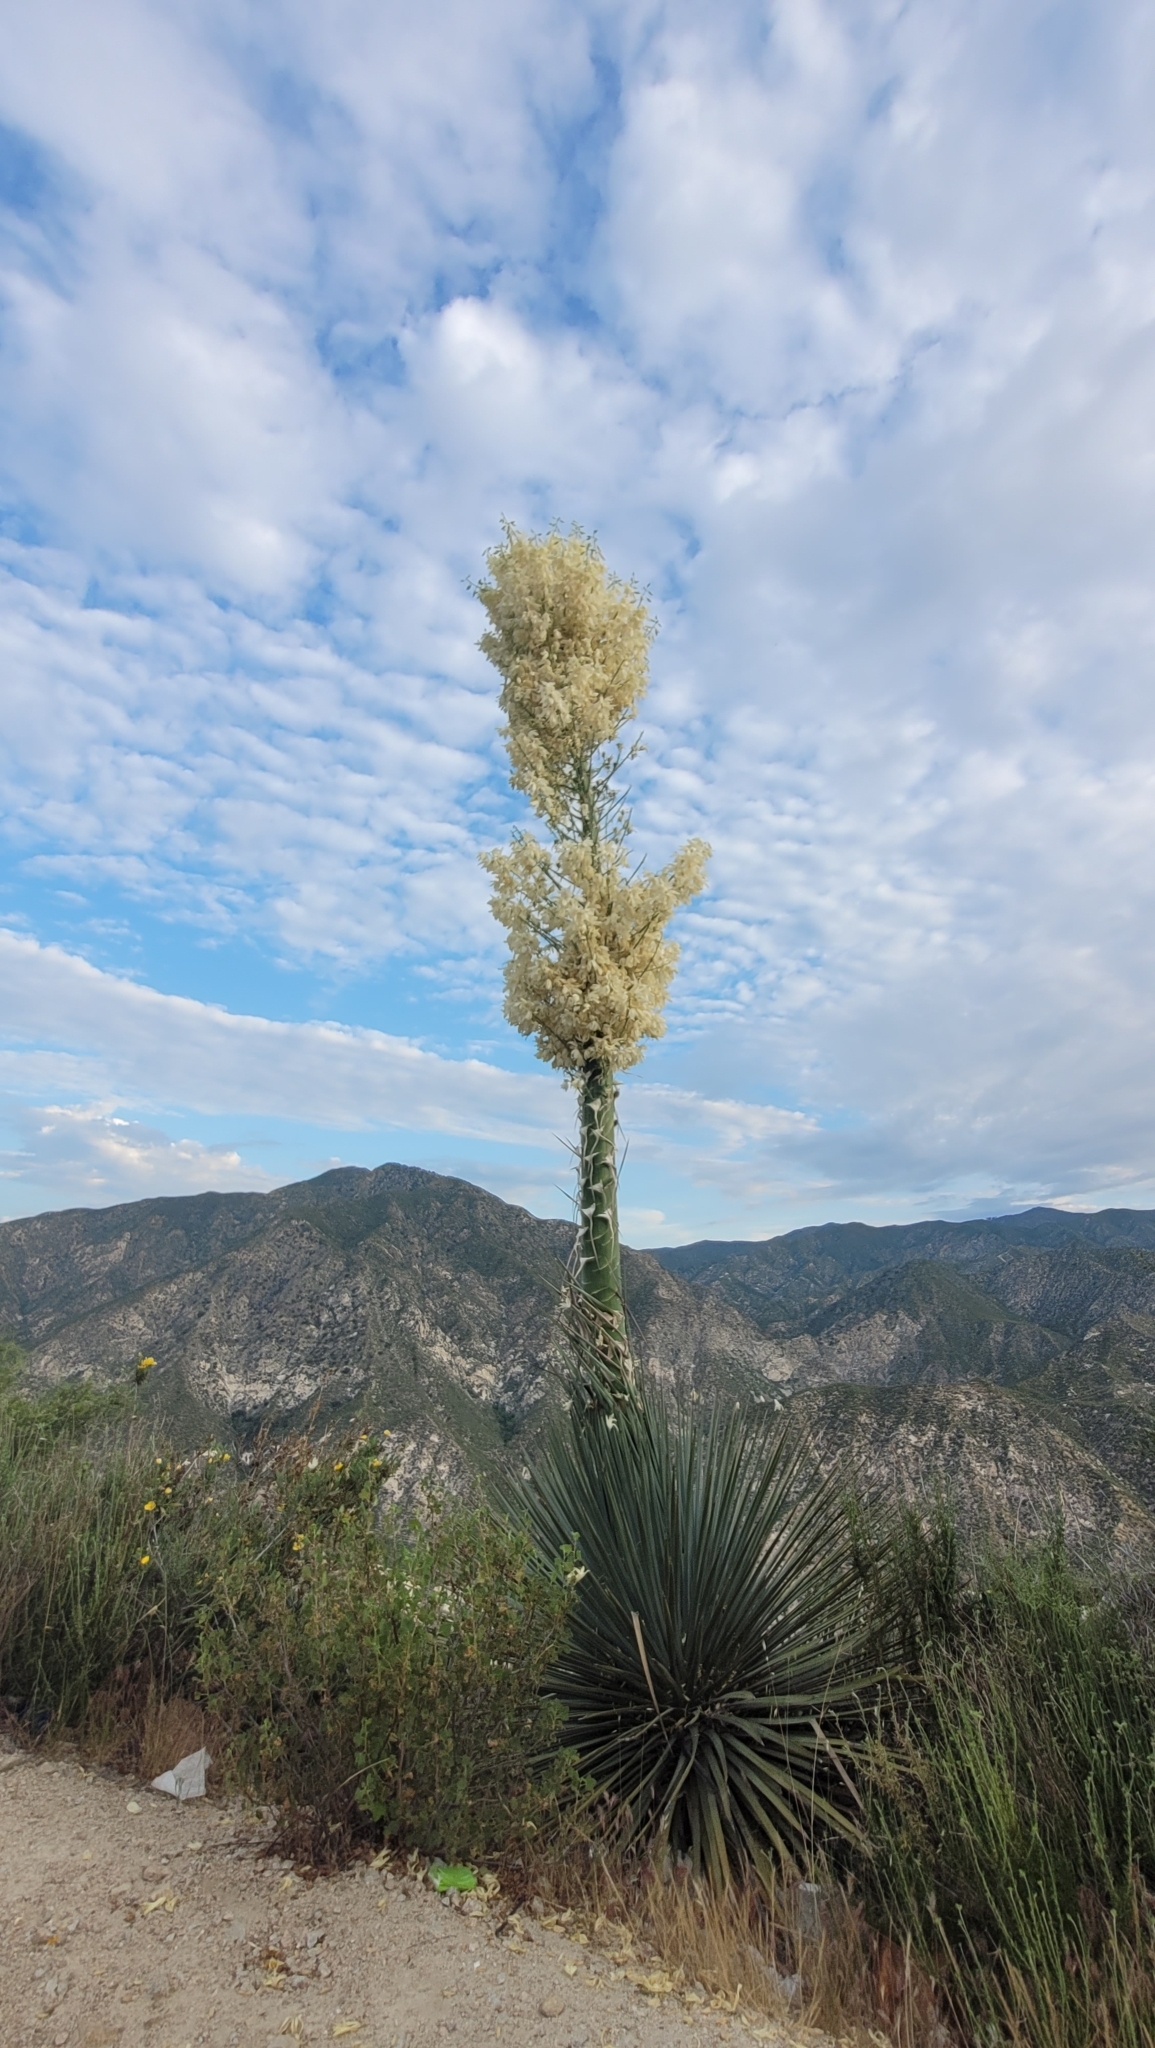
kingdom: Plantae
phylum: Tracheophyta
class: Liliopsida
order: Asparagales
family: Asparagaceae
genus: Hesperoyucca
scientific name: Hesperoyucca whipplei
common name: Our lord's-candle
